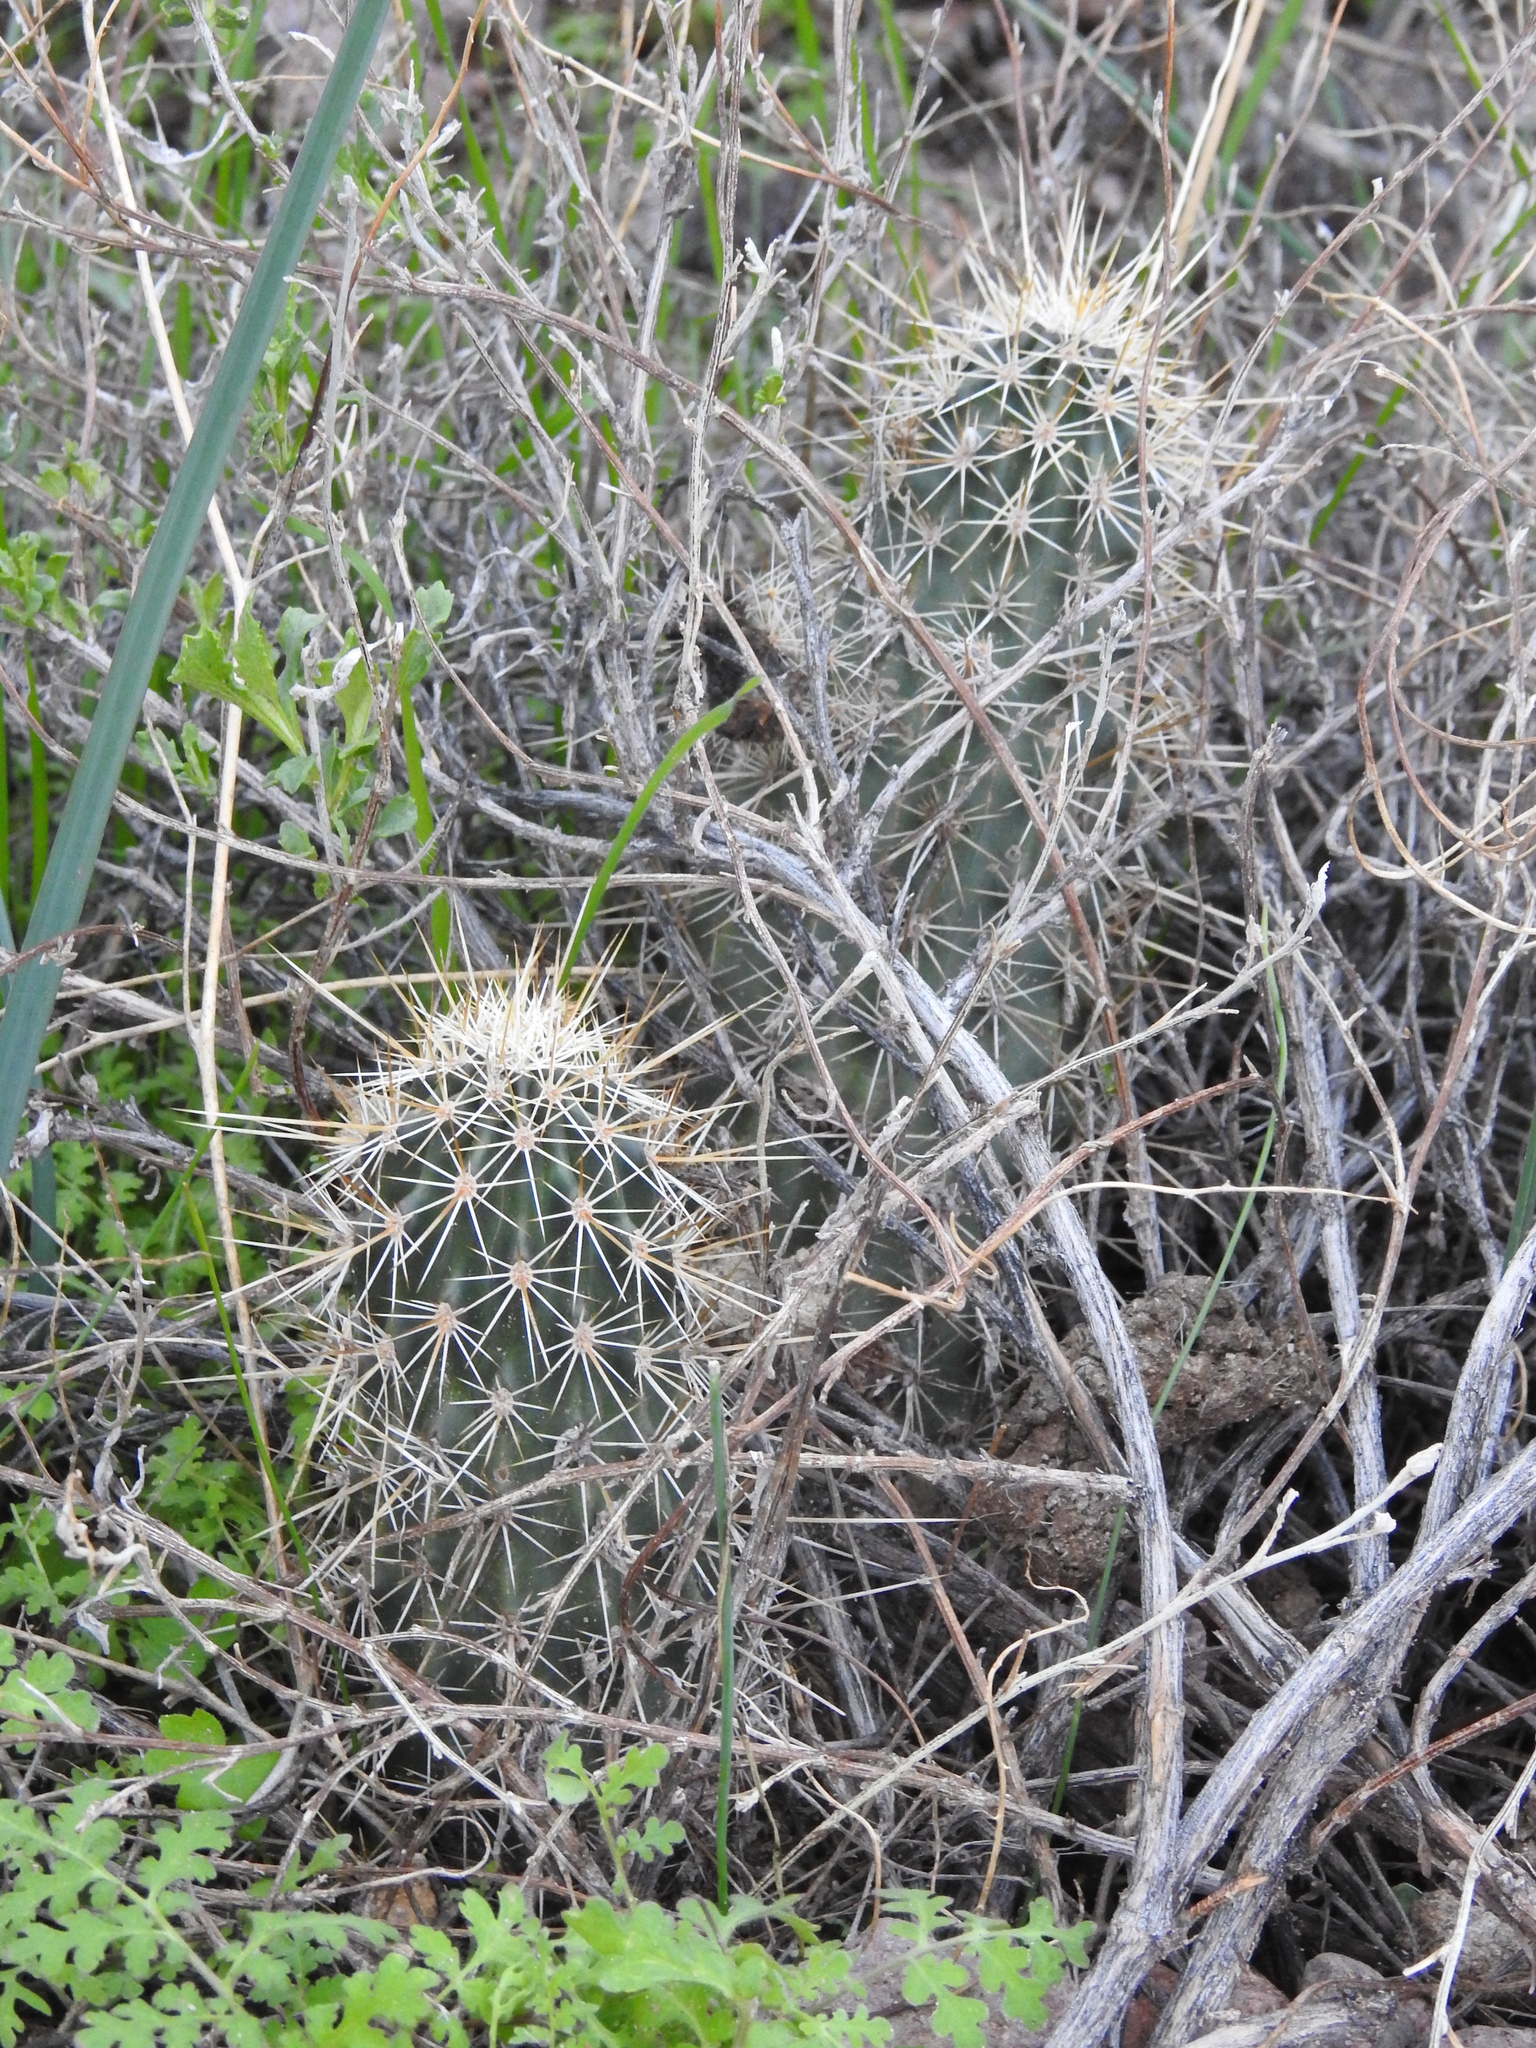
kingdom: Plantae
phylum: Tracheophyta
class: Magnoliopsida
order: Caryophyllales
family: Cactaceae
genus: Echinocereus
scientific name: Echinocereus fasciculatus
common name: Bundle hedgehog
